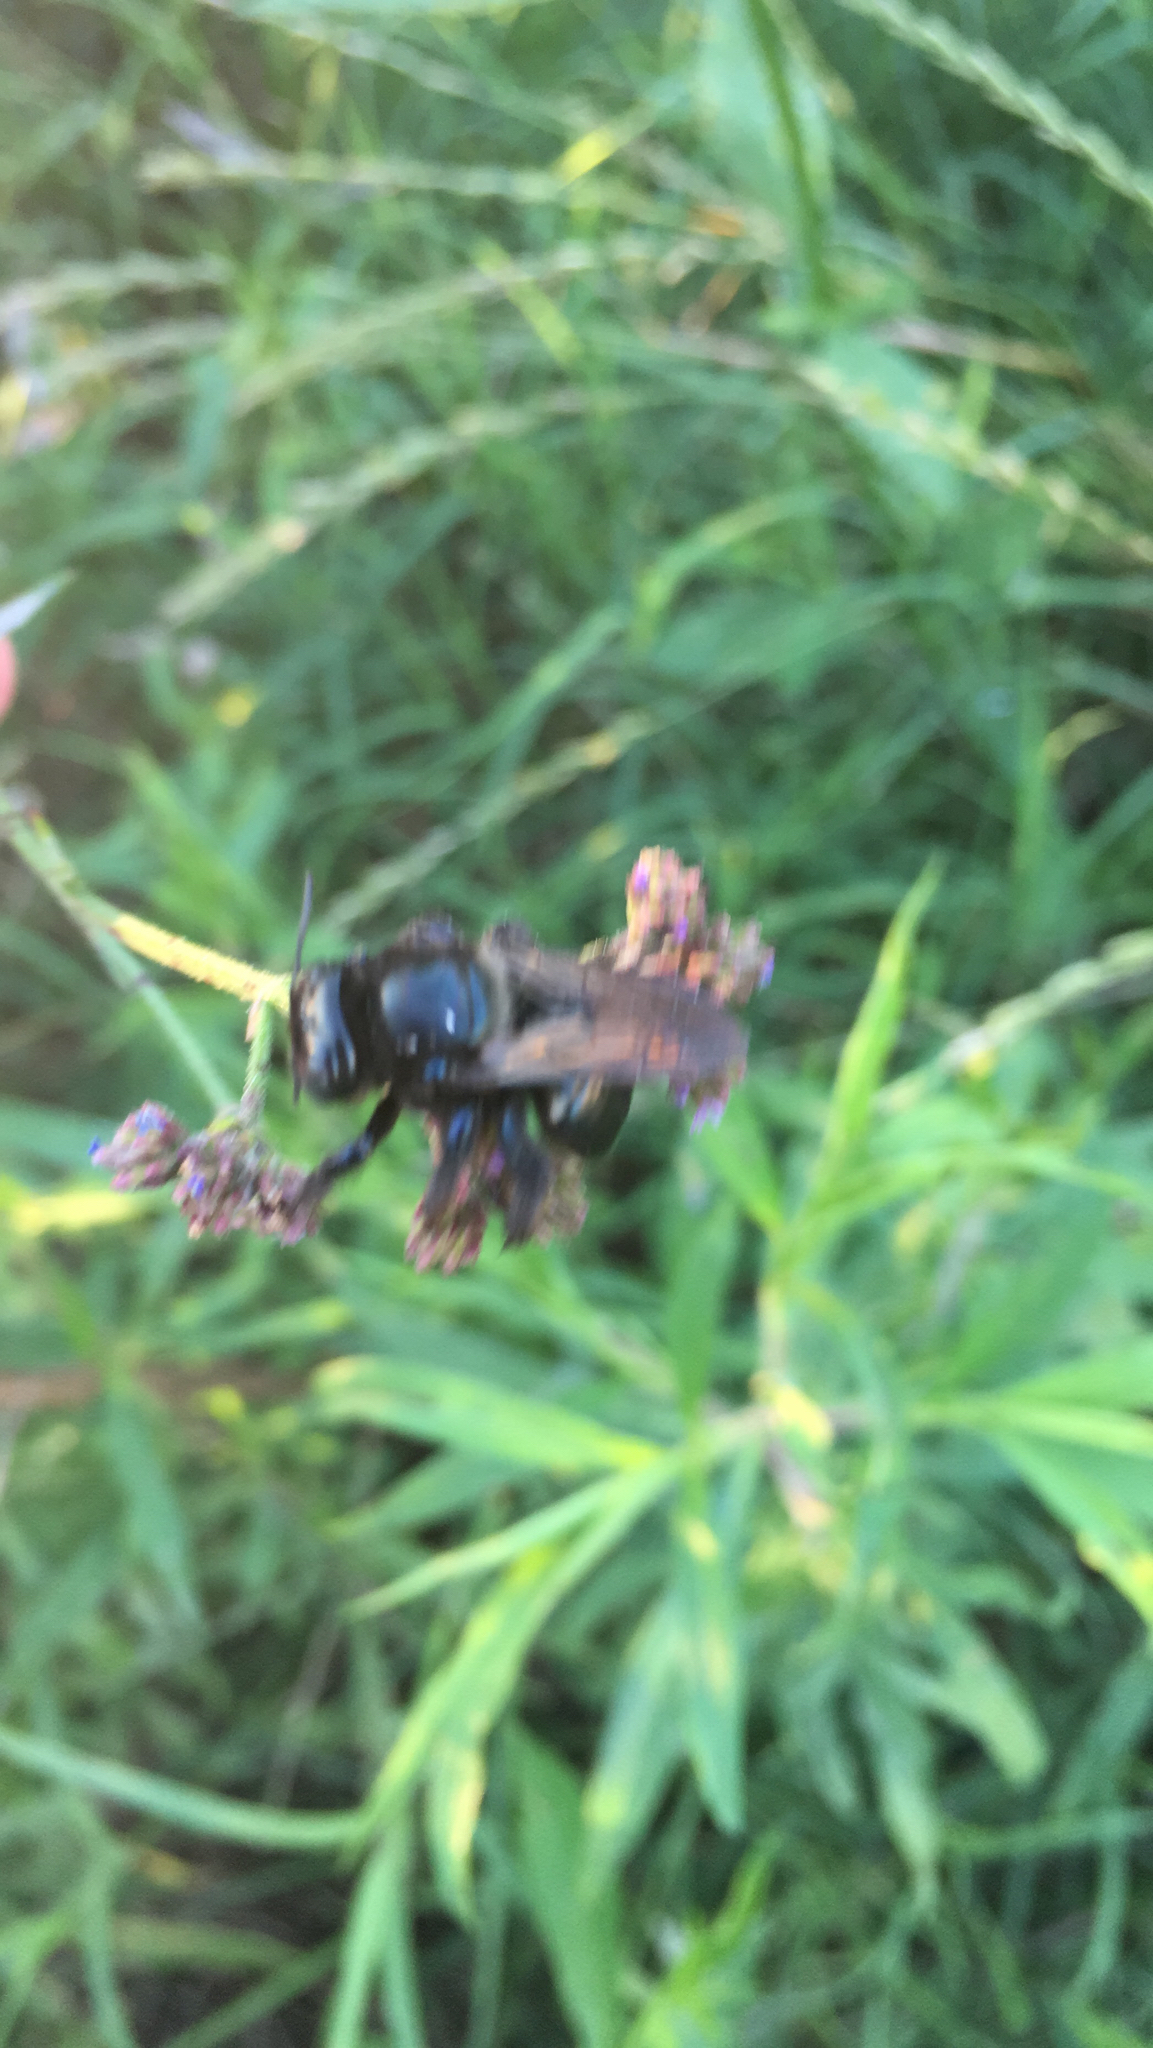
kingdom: Animalia
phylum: Arthropoda
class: Insecta
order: Hymenoptera
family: Apidae
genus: Xylocopa
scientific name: Xylocopa micans
